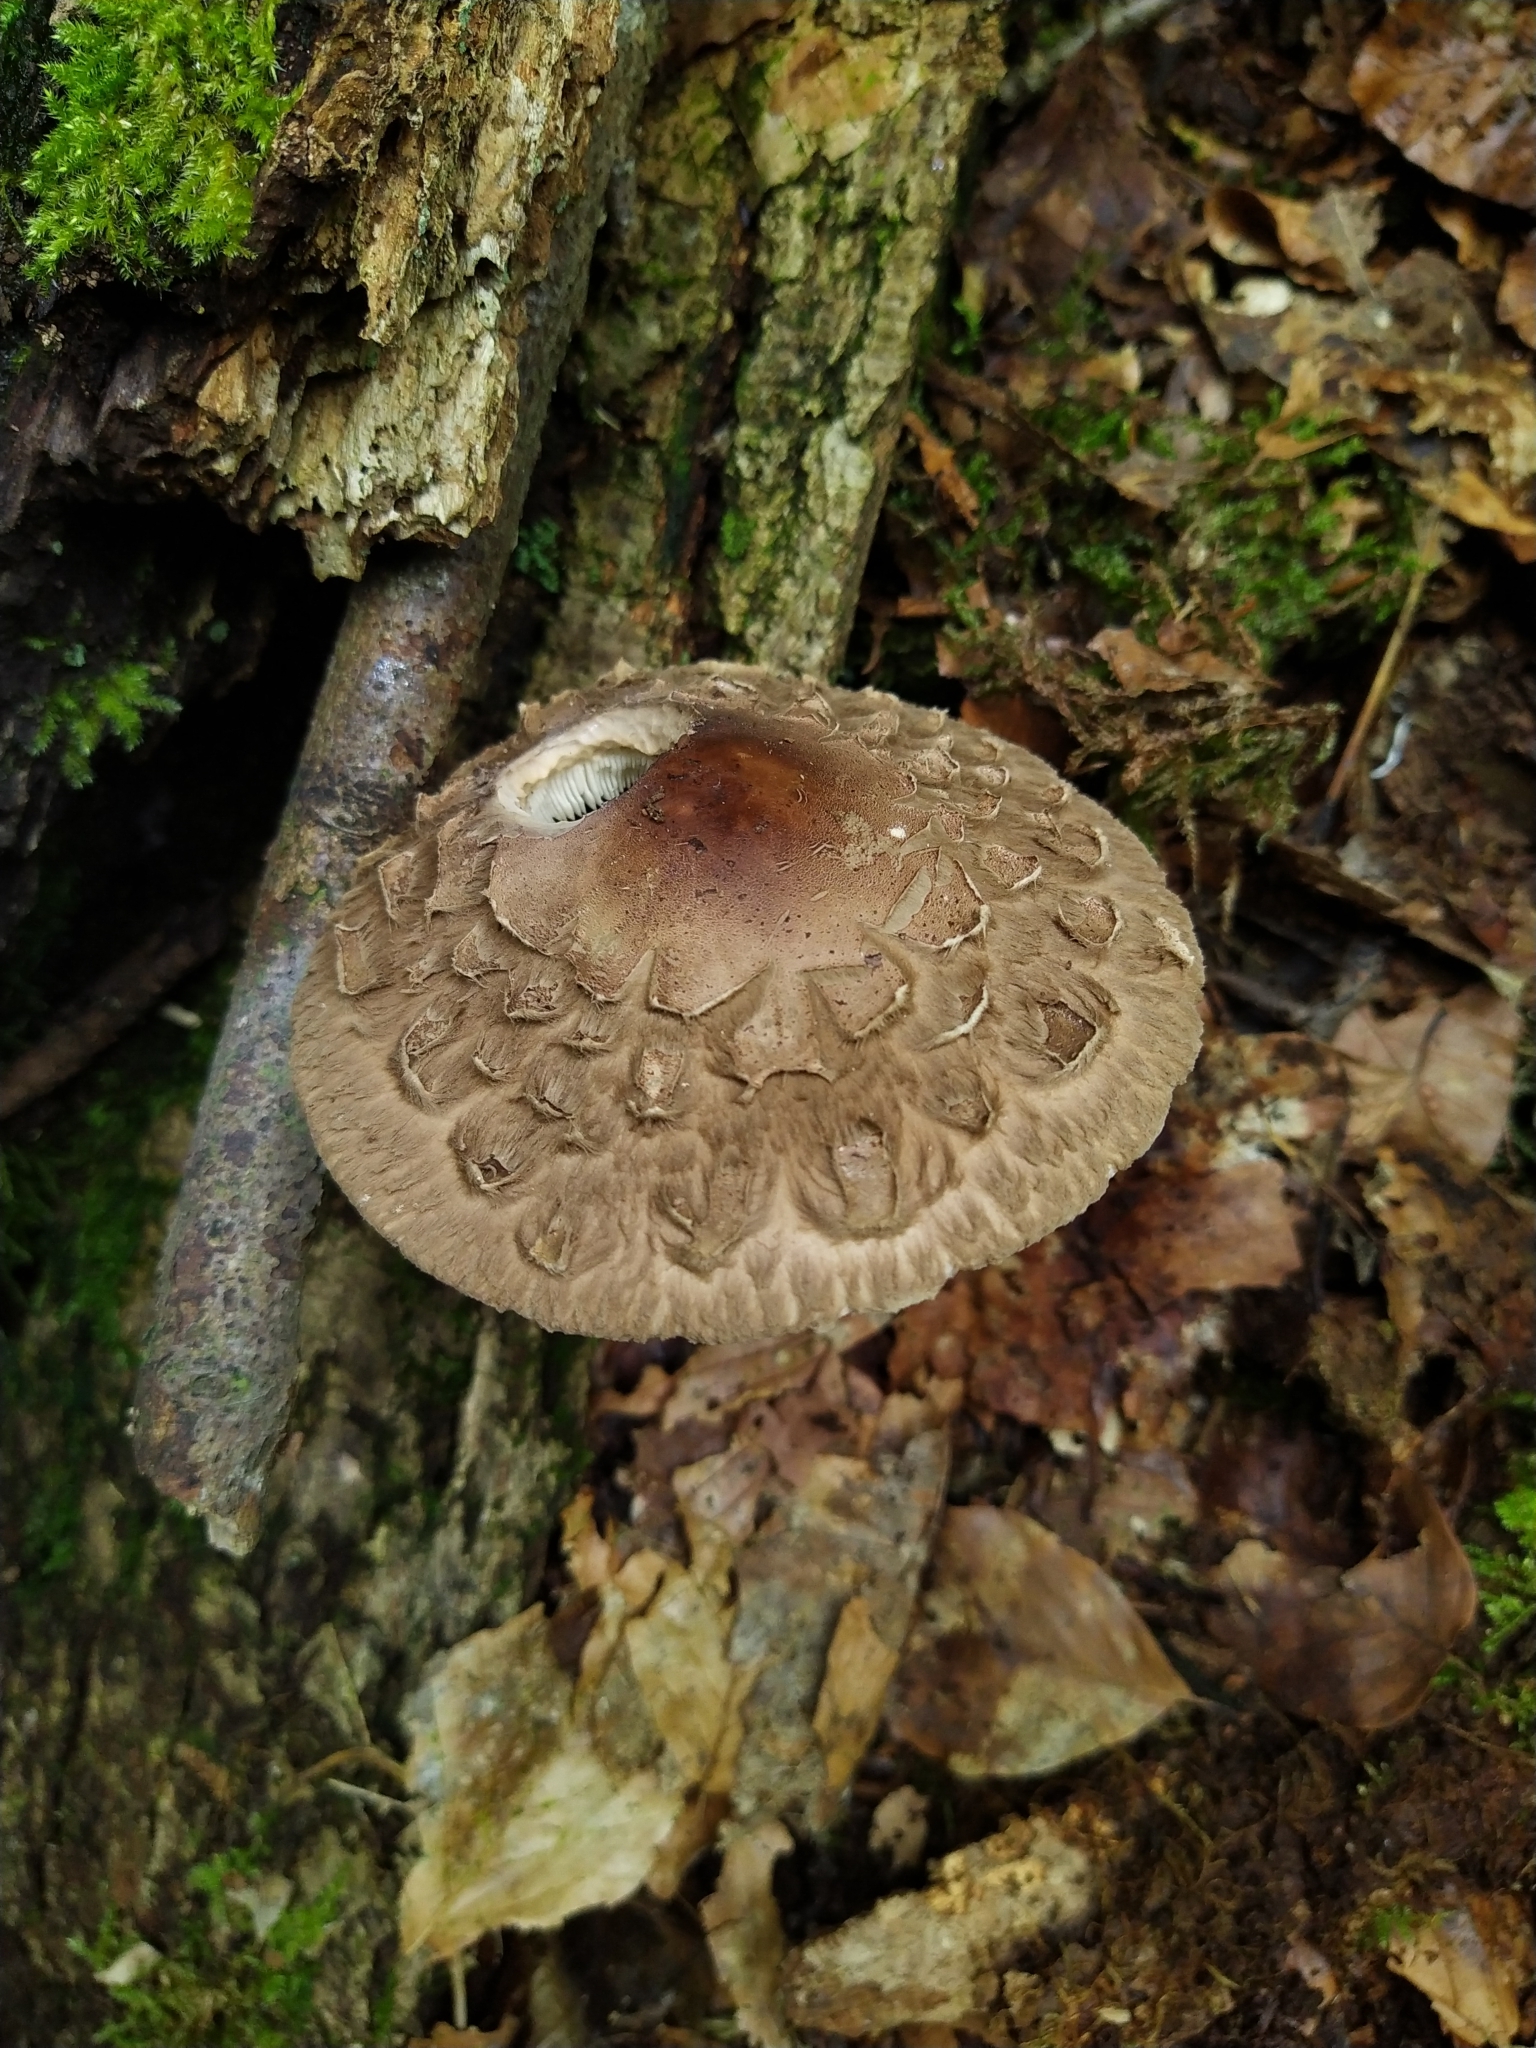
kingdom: Fungi
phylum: Basidiomycota
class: Agaricomycetes
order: Agaricales
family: Agaricaceae
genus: Chlorophyllum
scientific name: Chlorophyllum olivieri
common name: Conifer parasol
